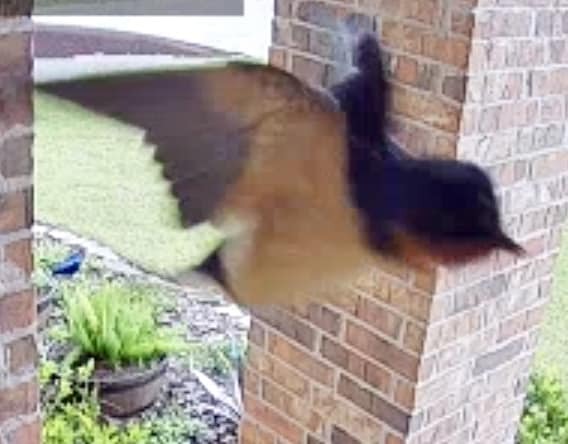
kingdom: Animalia
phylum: Chordata
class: Aves
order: Passeriformes
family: Hirundinidae
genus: Hirundo
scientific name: Hirundo rustica
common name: Barn swallow
